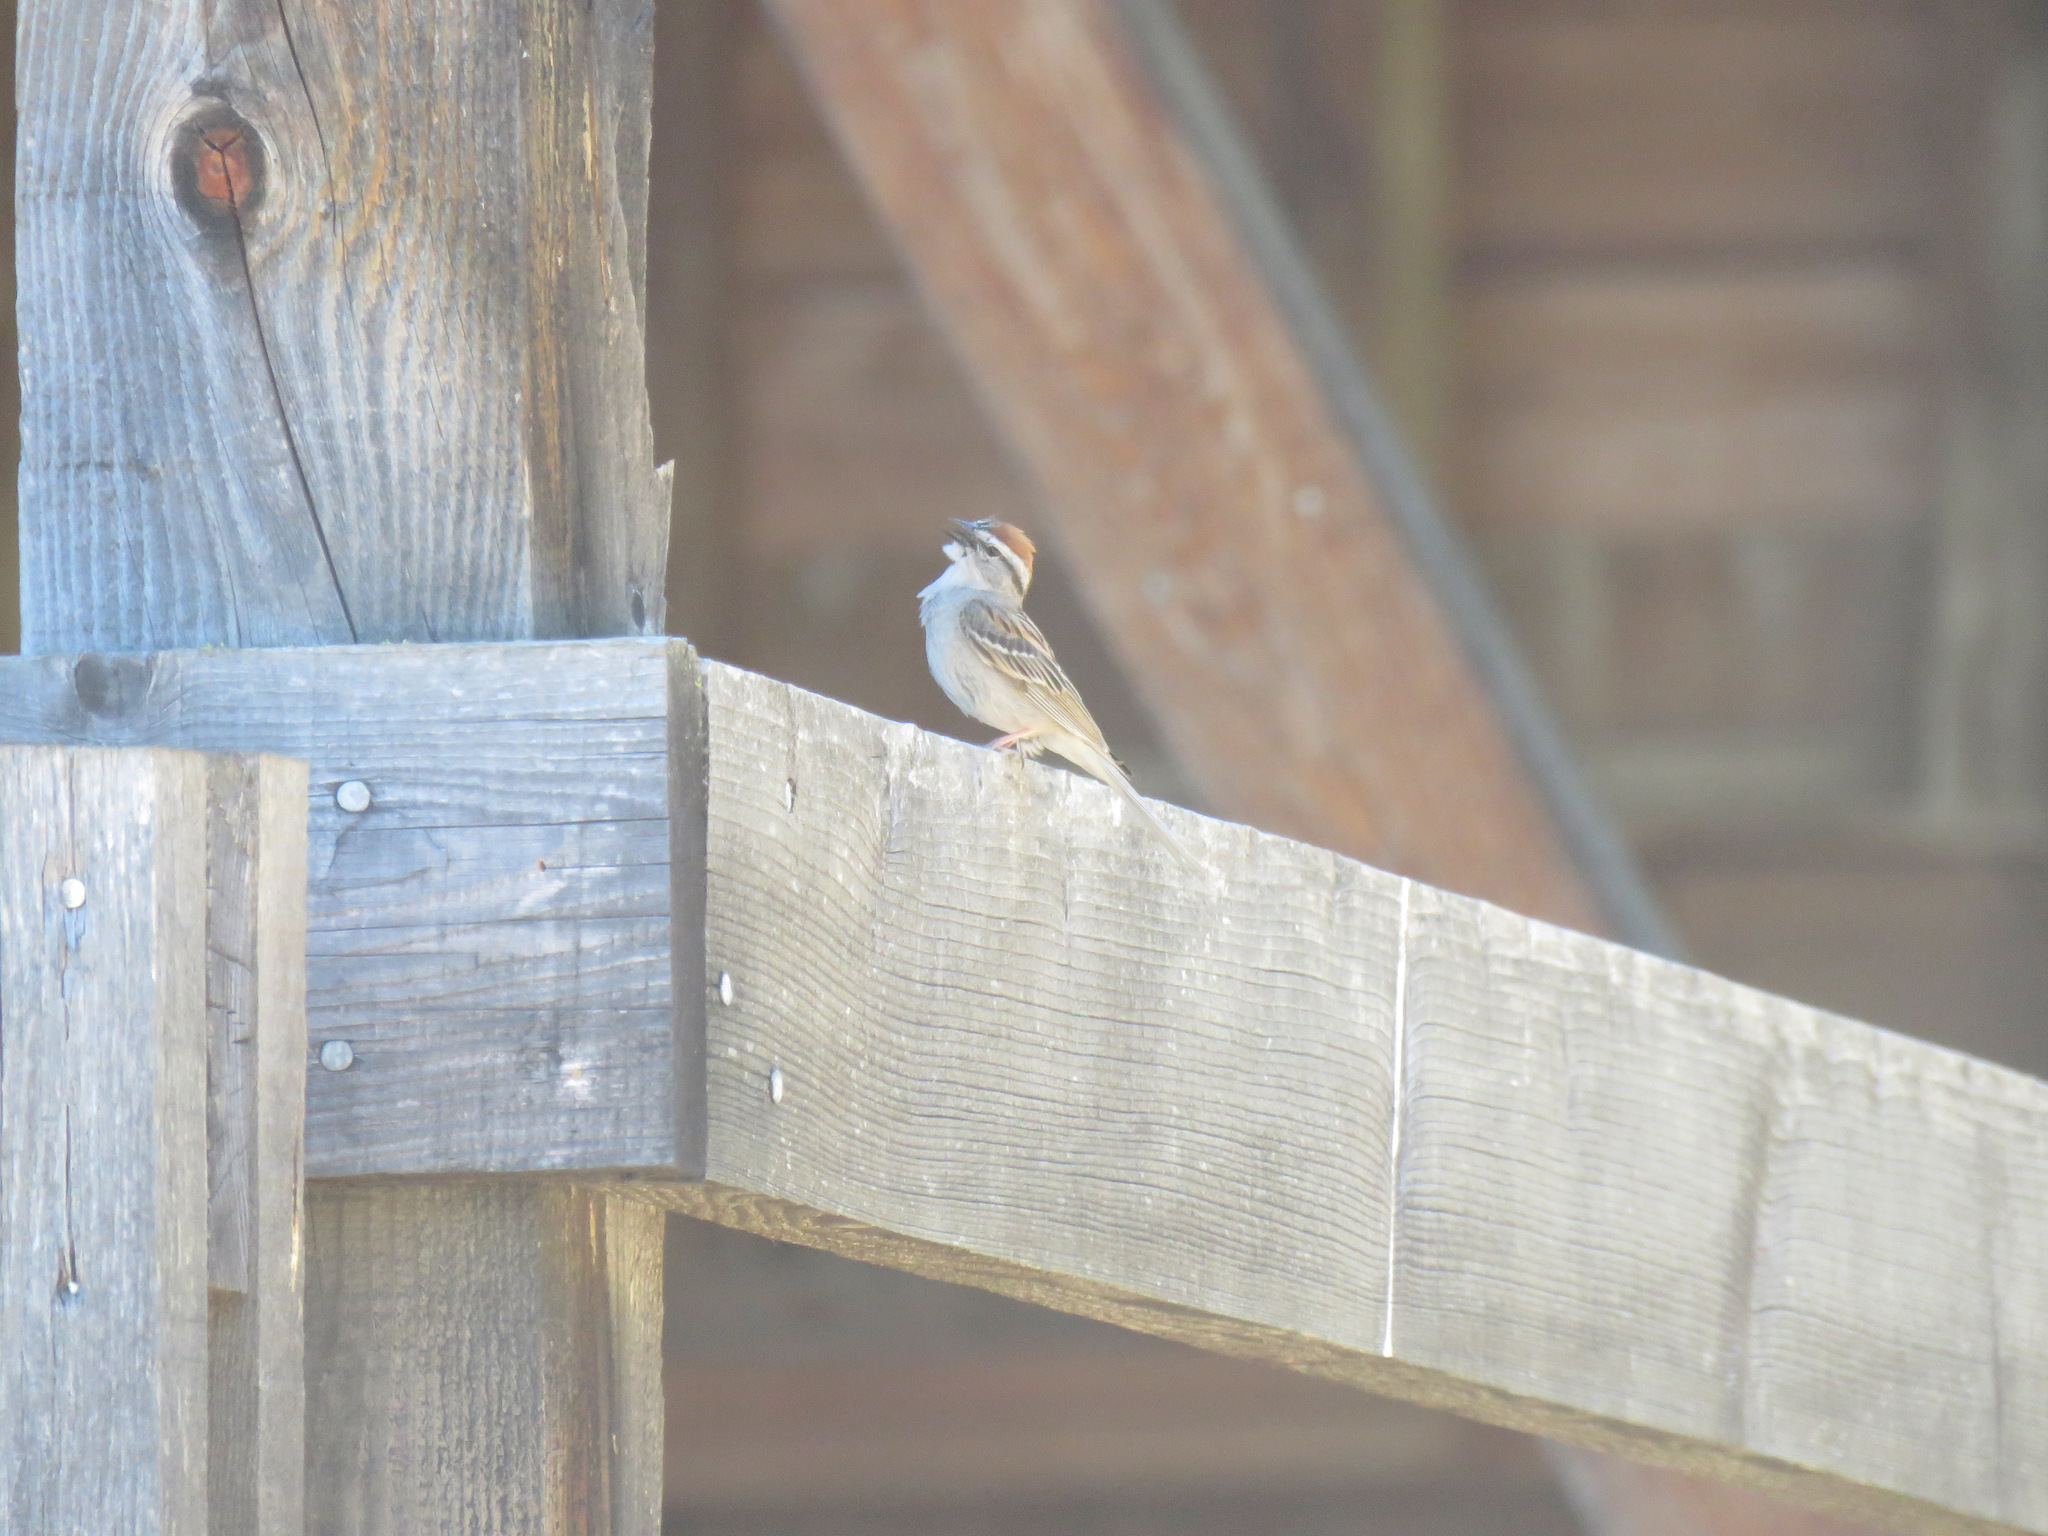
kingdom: Animalia
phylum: Chordata
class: Aves
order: Passeriformes
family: Passerellidae
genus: Spizella
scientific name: Spizella passerina
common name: Chipping sparrow
